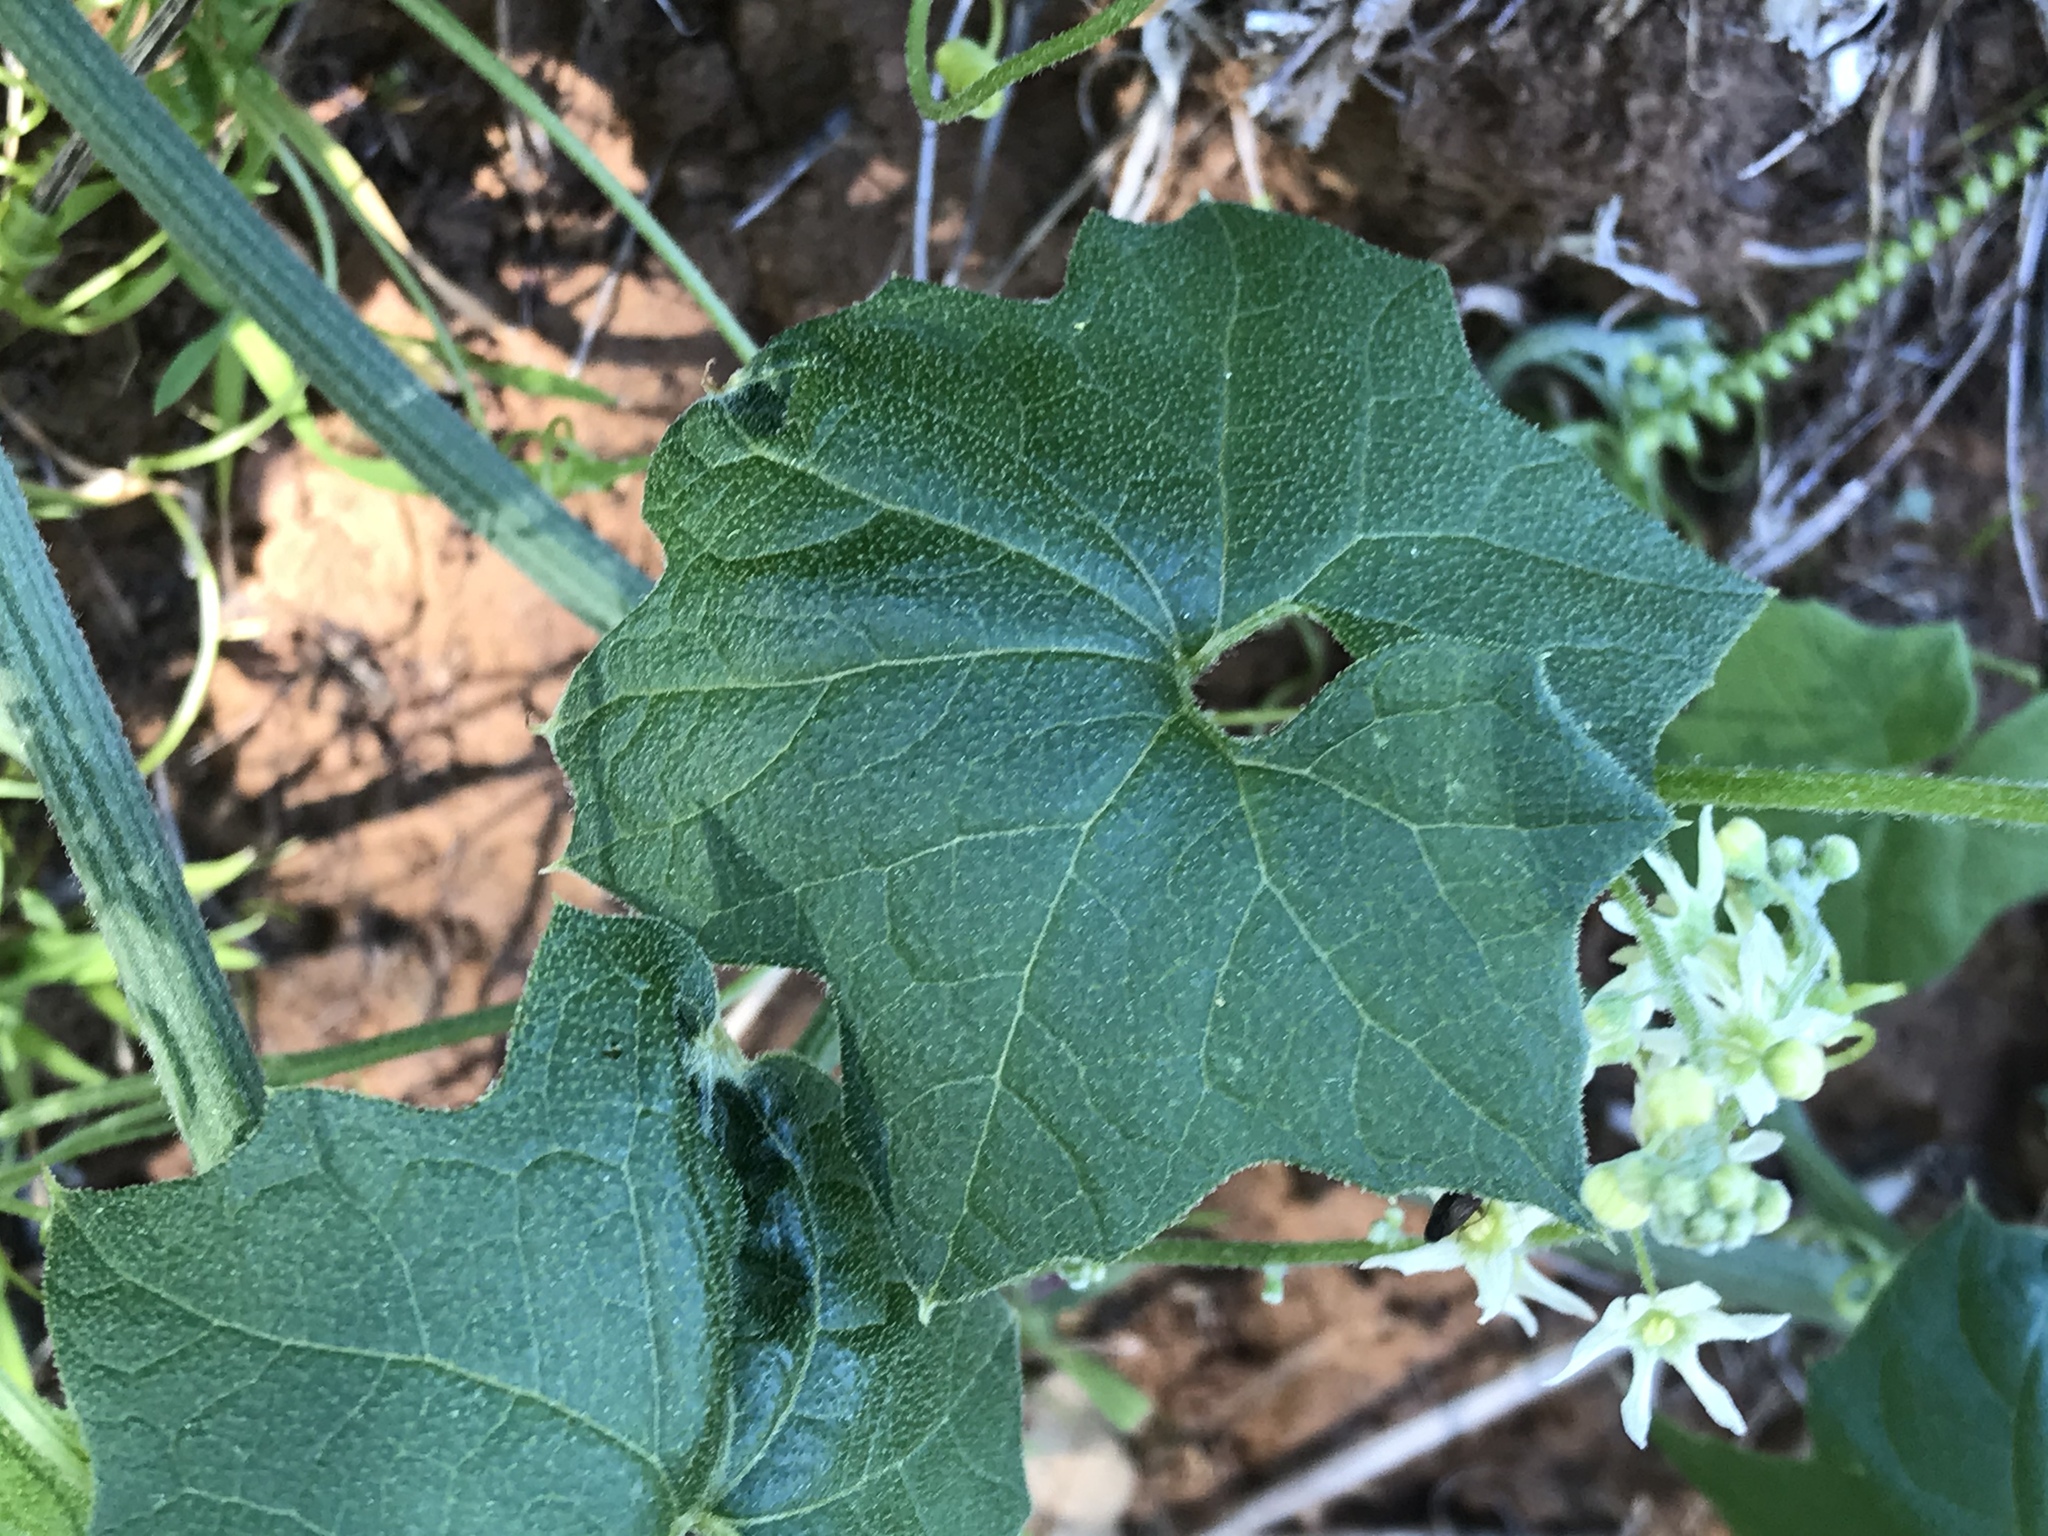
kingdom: Plantae
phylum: Tracheophyta
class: Magnoliopsida
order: Cucurbitales
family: Cucurbitaceae
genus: Marah
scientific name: Marah fabacea
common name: California manroot
